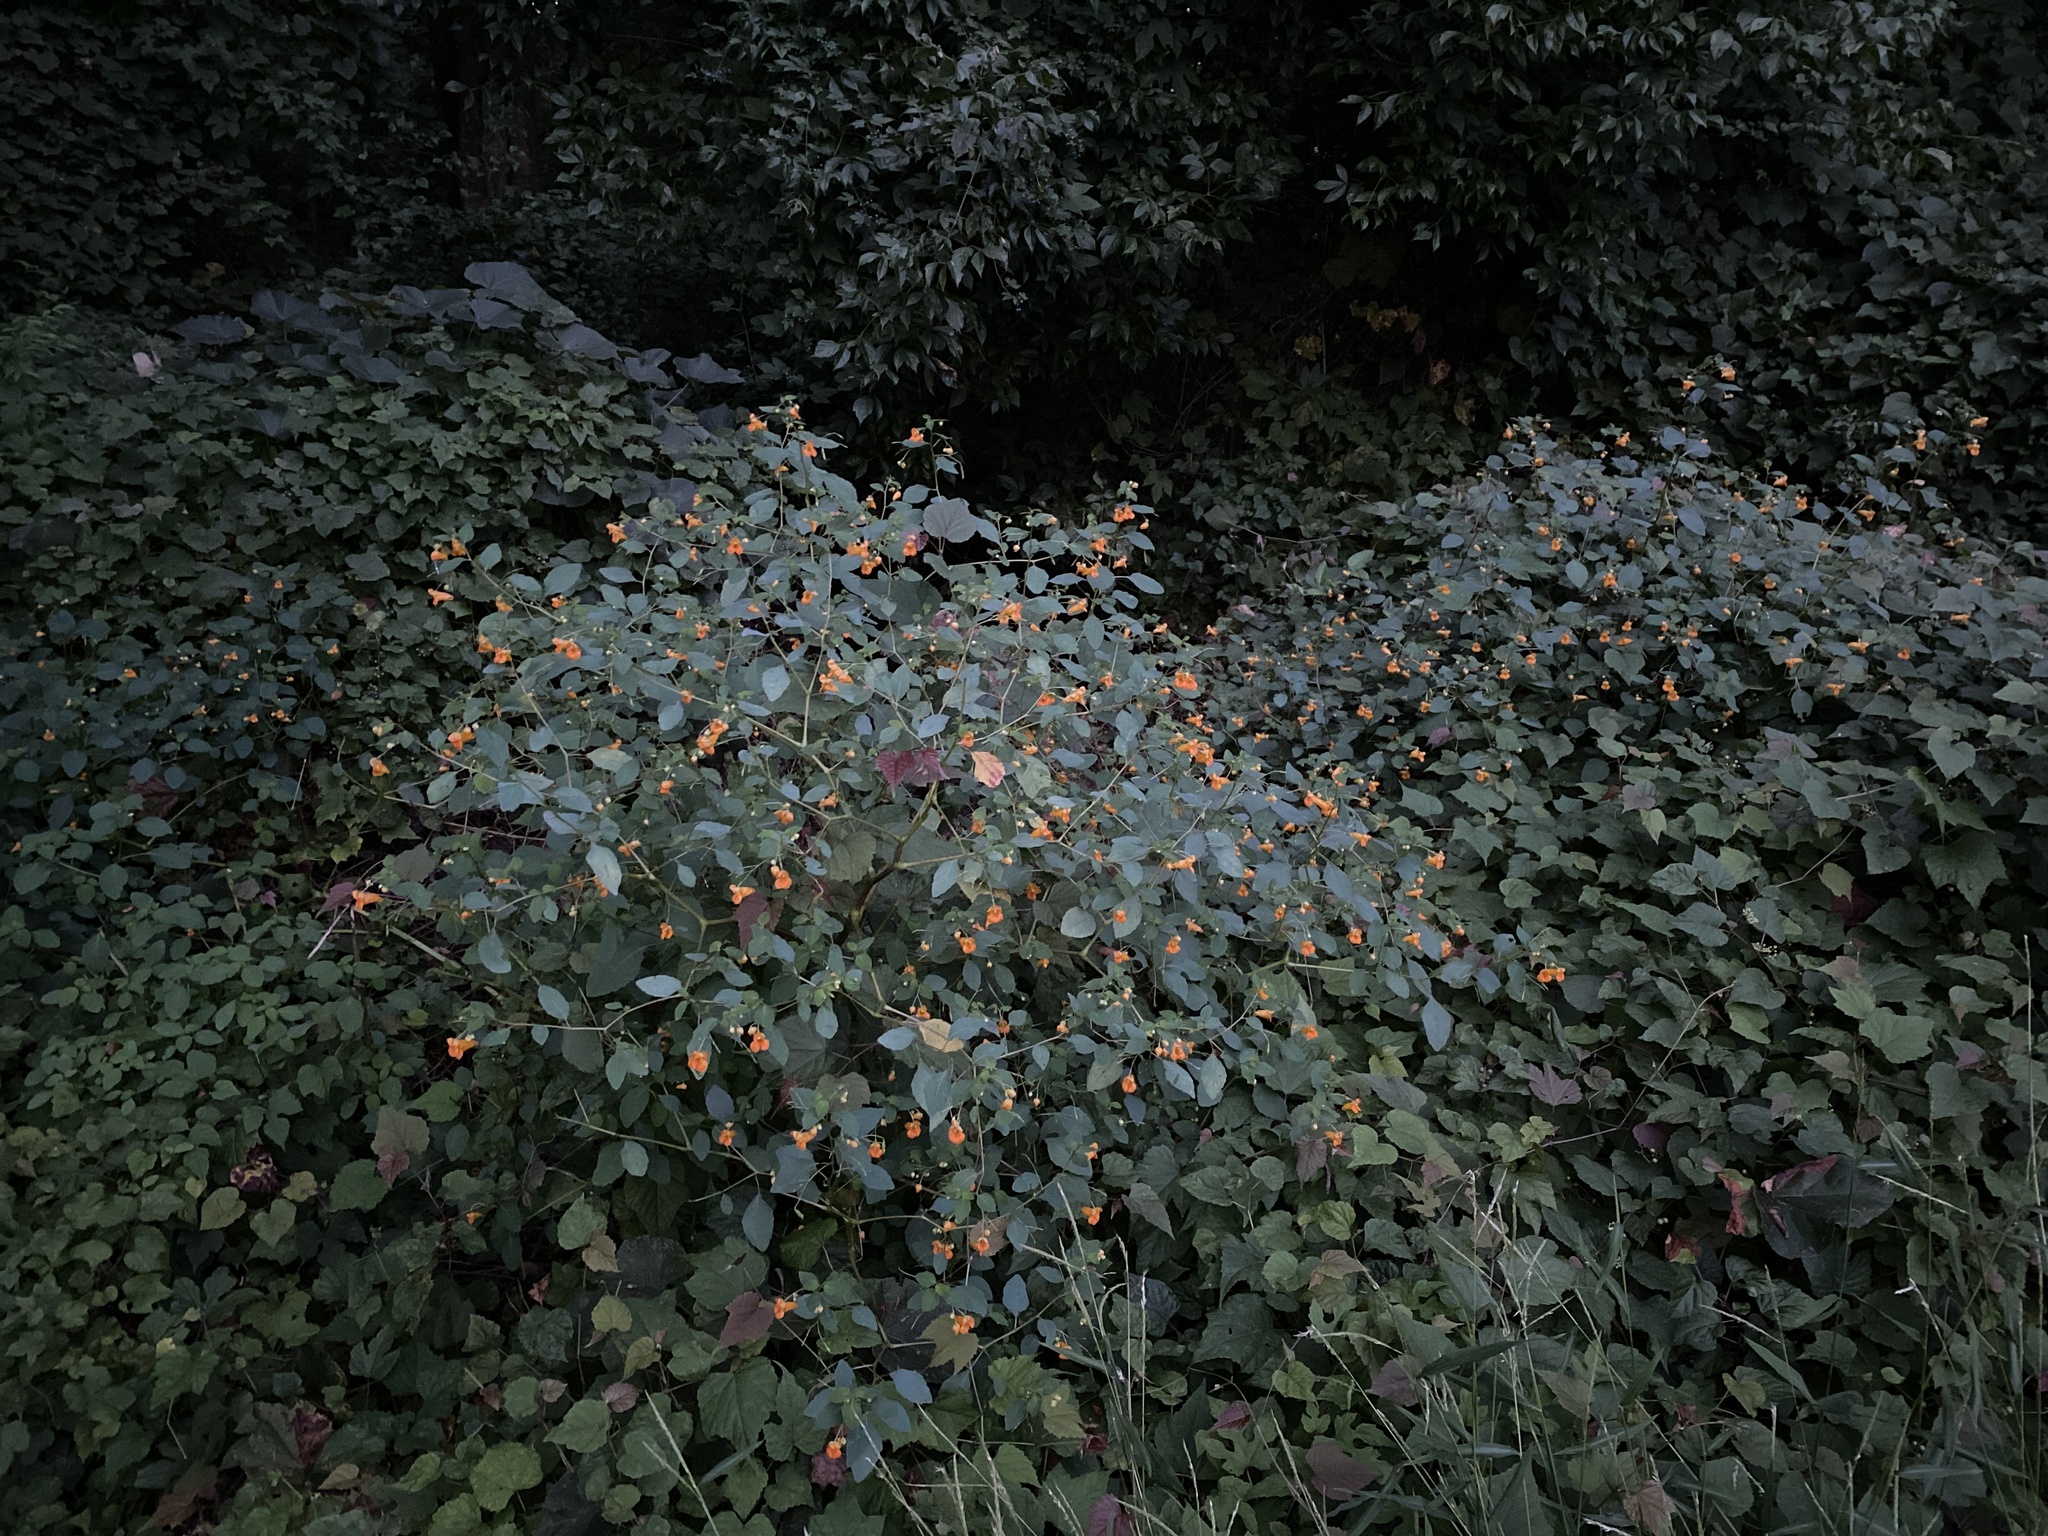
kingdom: Plantae
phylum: Tracheophyta
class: Magnoliopsida
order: Ericales
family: Balsaminaceae
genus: Impatiens
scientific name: Impatiens capensis
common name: Orange balsam
